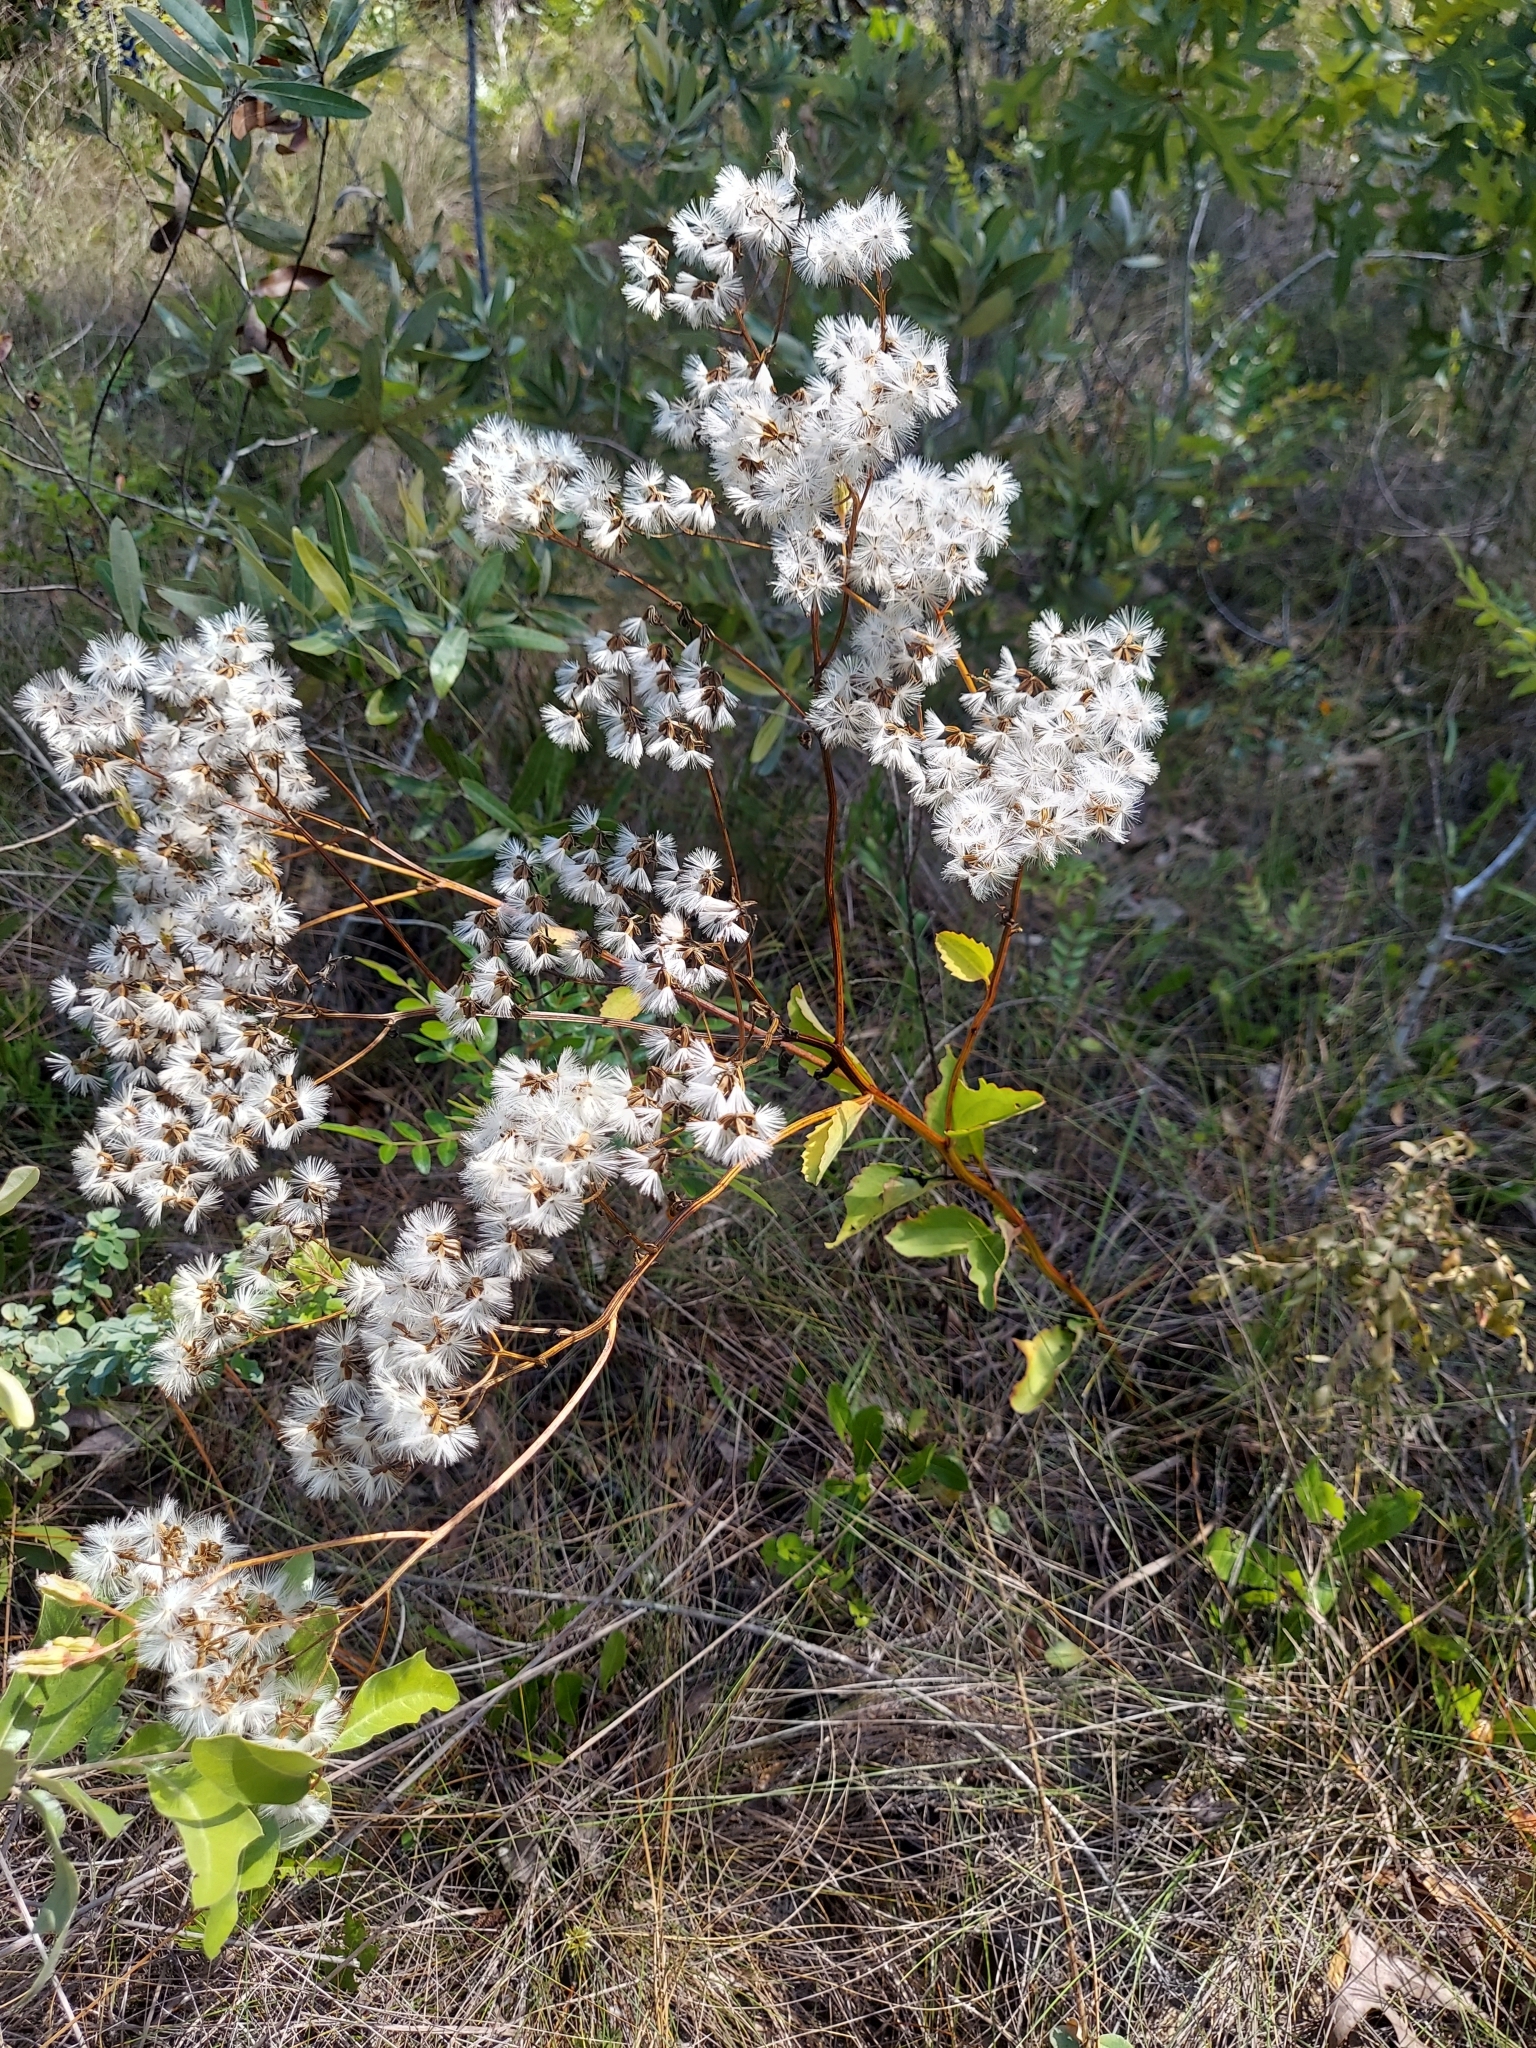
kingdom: Plantae
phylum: Tracheophyta
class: Magnoliopsida
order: Asterales
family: Asteraceae
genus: Arnoglossum
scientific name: Arnoglossum floridanum
